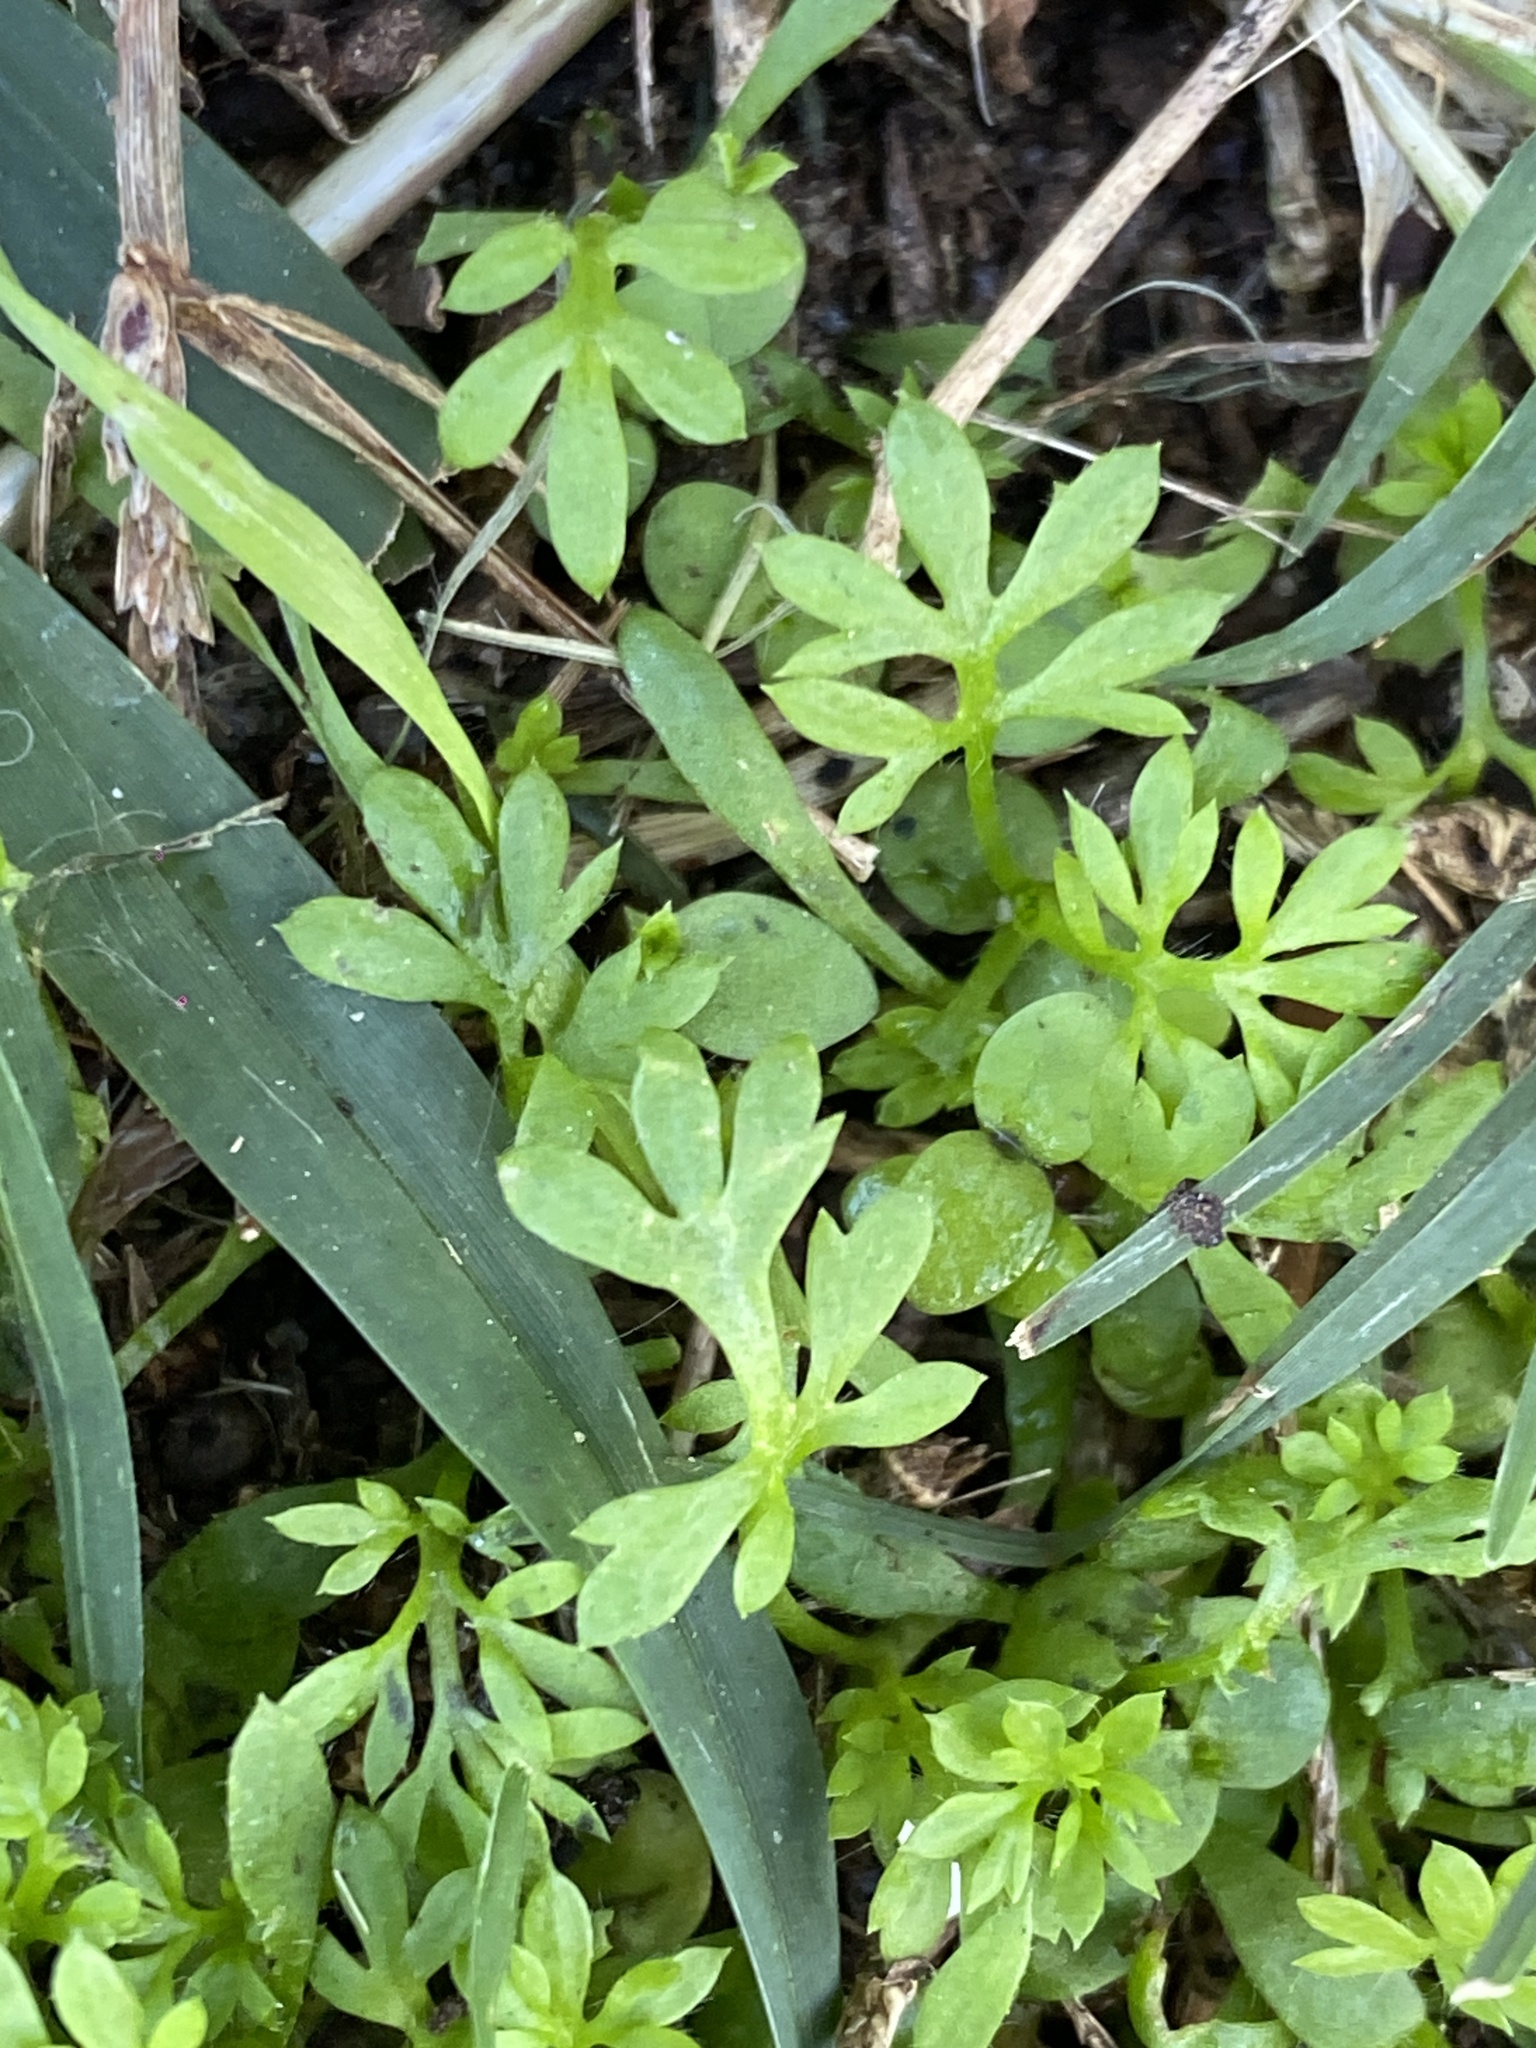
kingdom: Plantae
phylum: Tracheophyta
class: Magnoliopsida
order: Asterales
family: Asteraceae
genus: Cotula
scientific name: Cotula australis
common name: Australian waterbuttons
